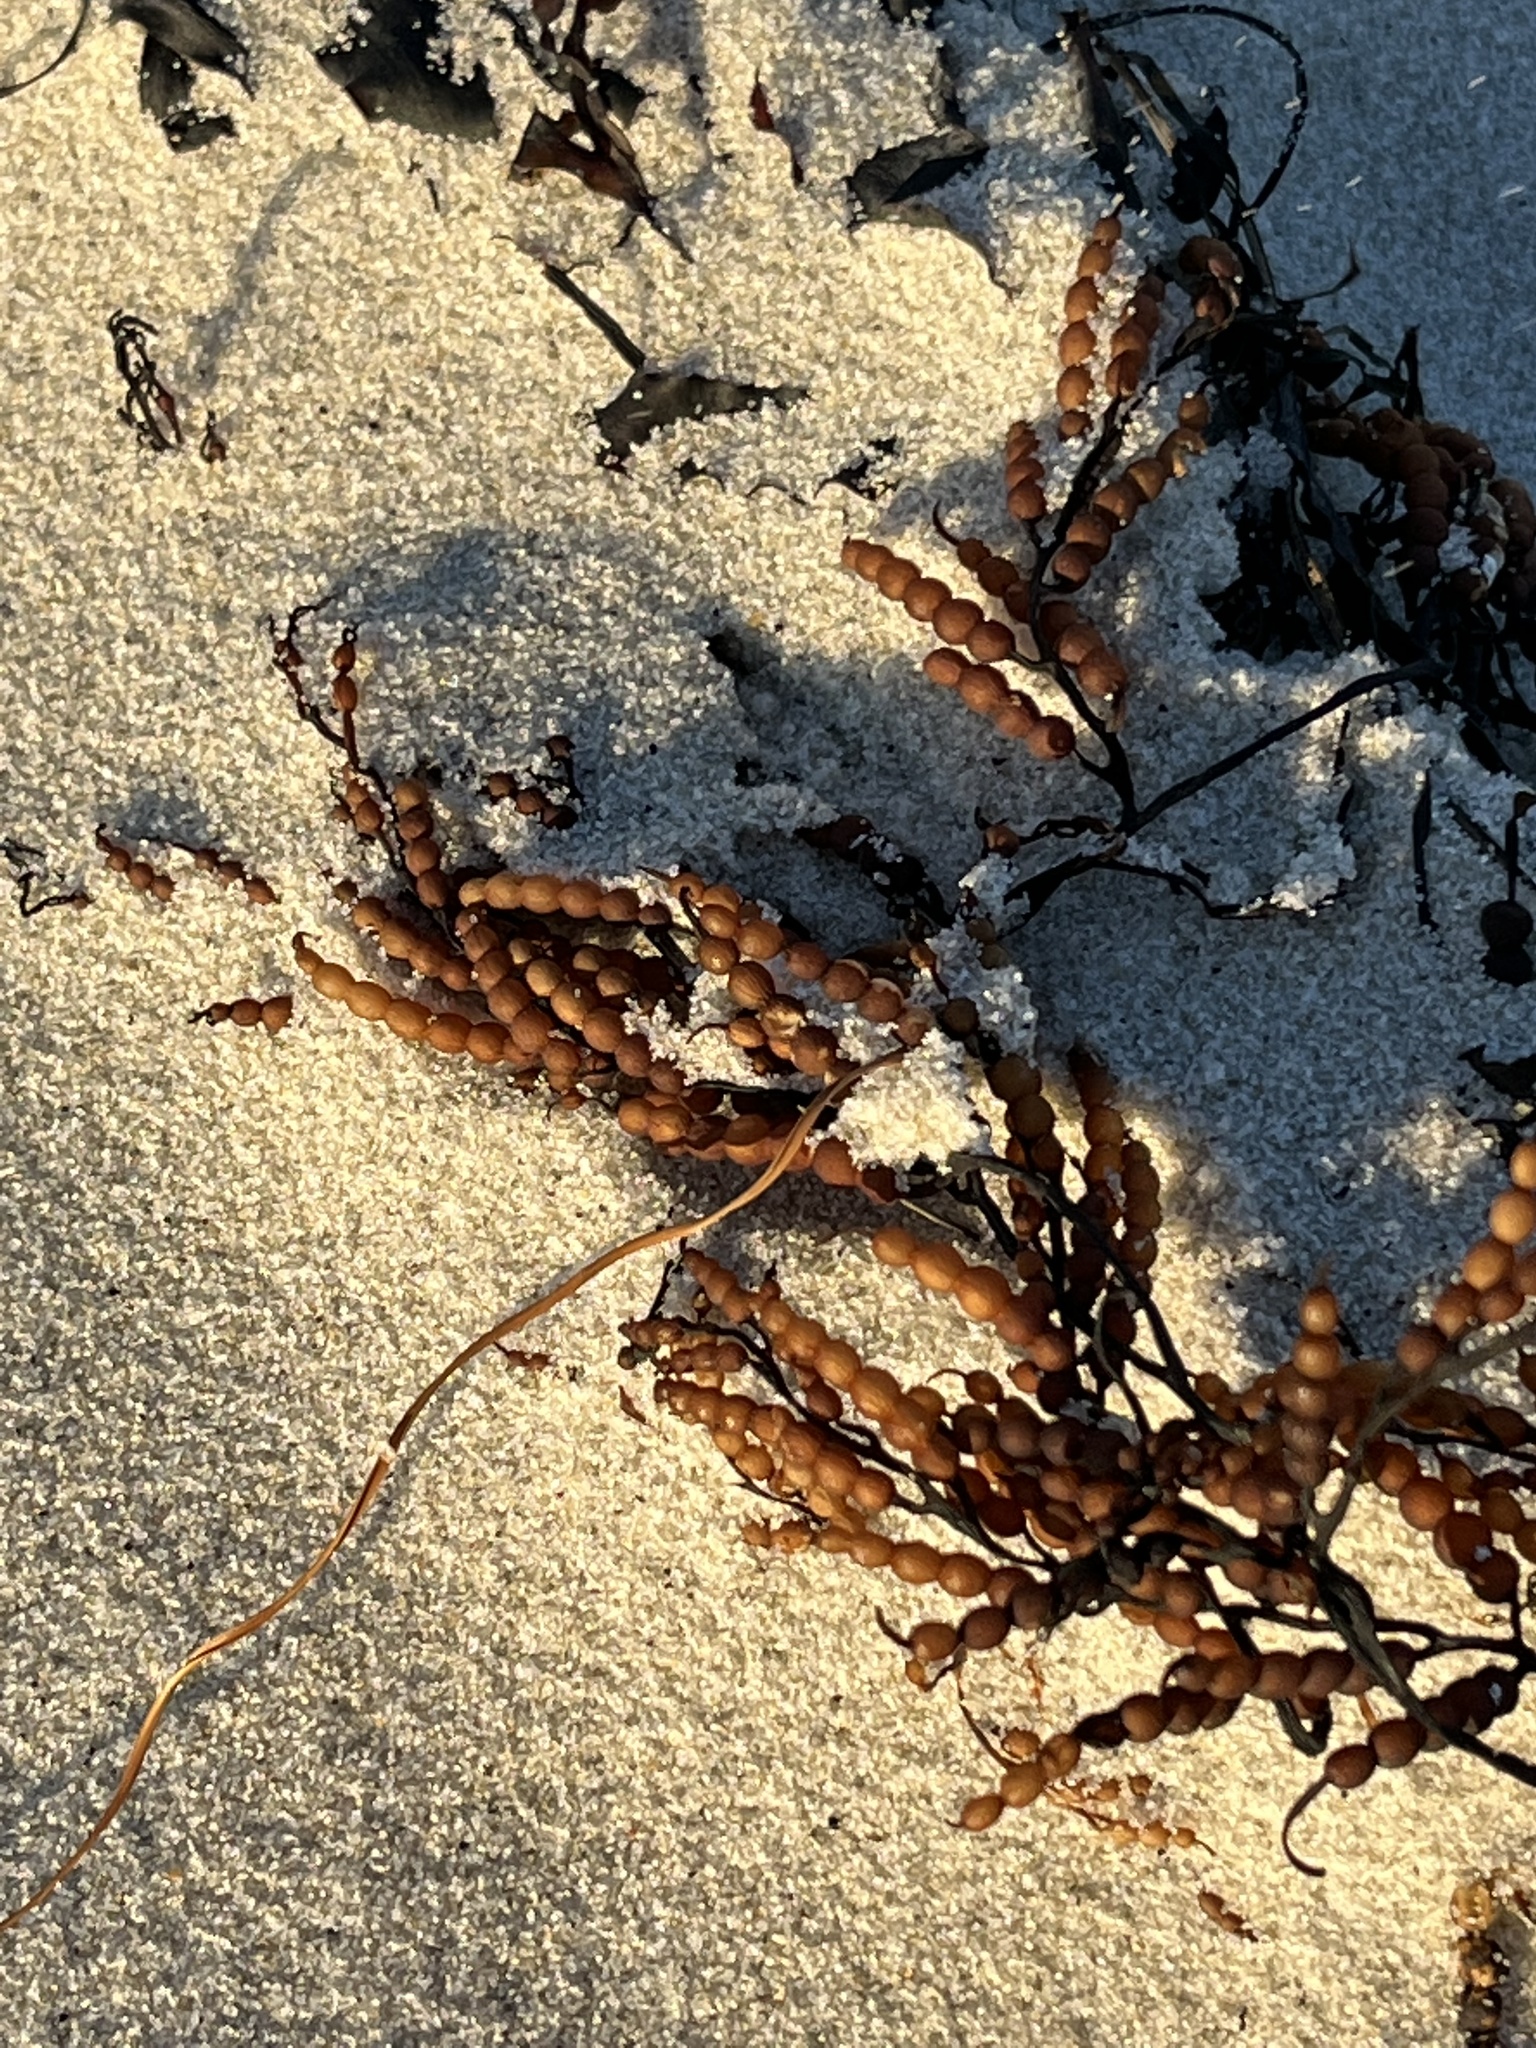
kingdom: Chromista
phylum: Ochrophyta
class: Phaeophyceae
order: Fucales
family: Sargassaceae
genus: Stephanocystis
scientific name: Stephanocystis
